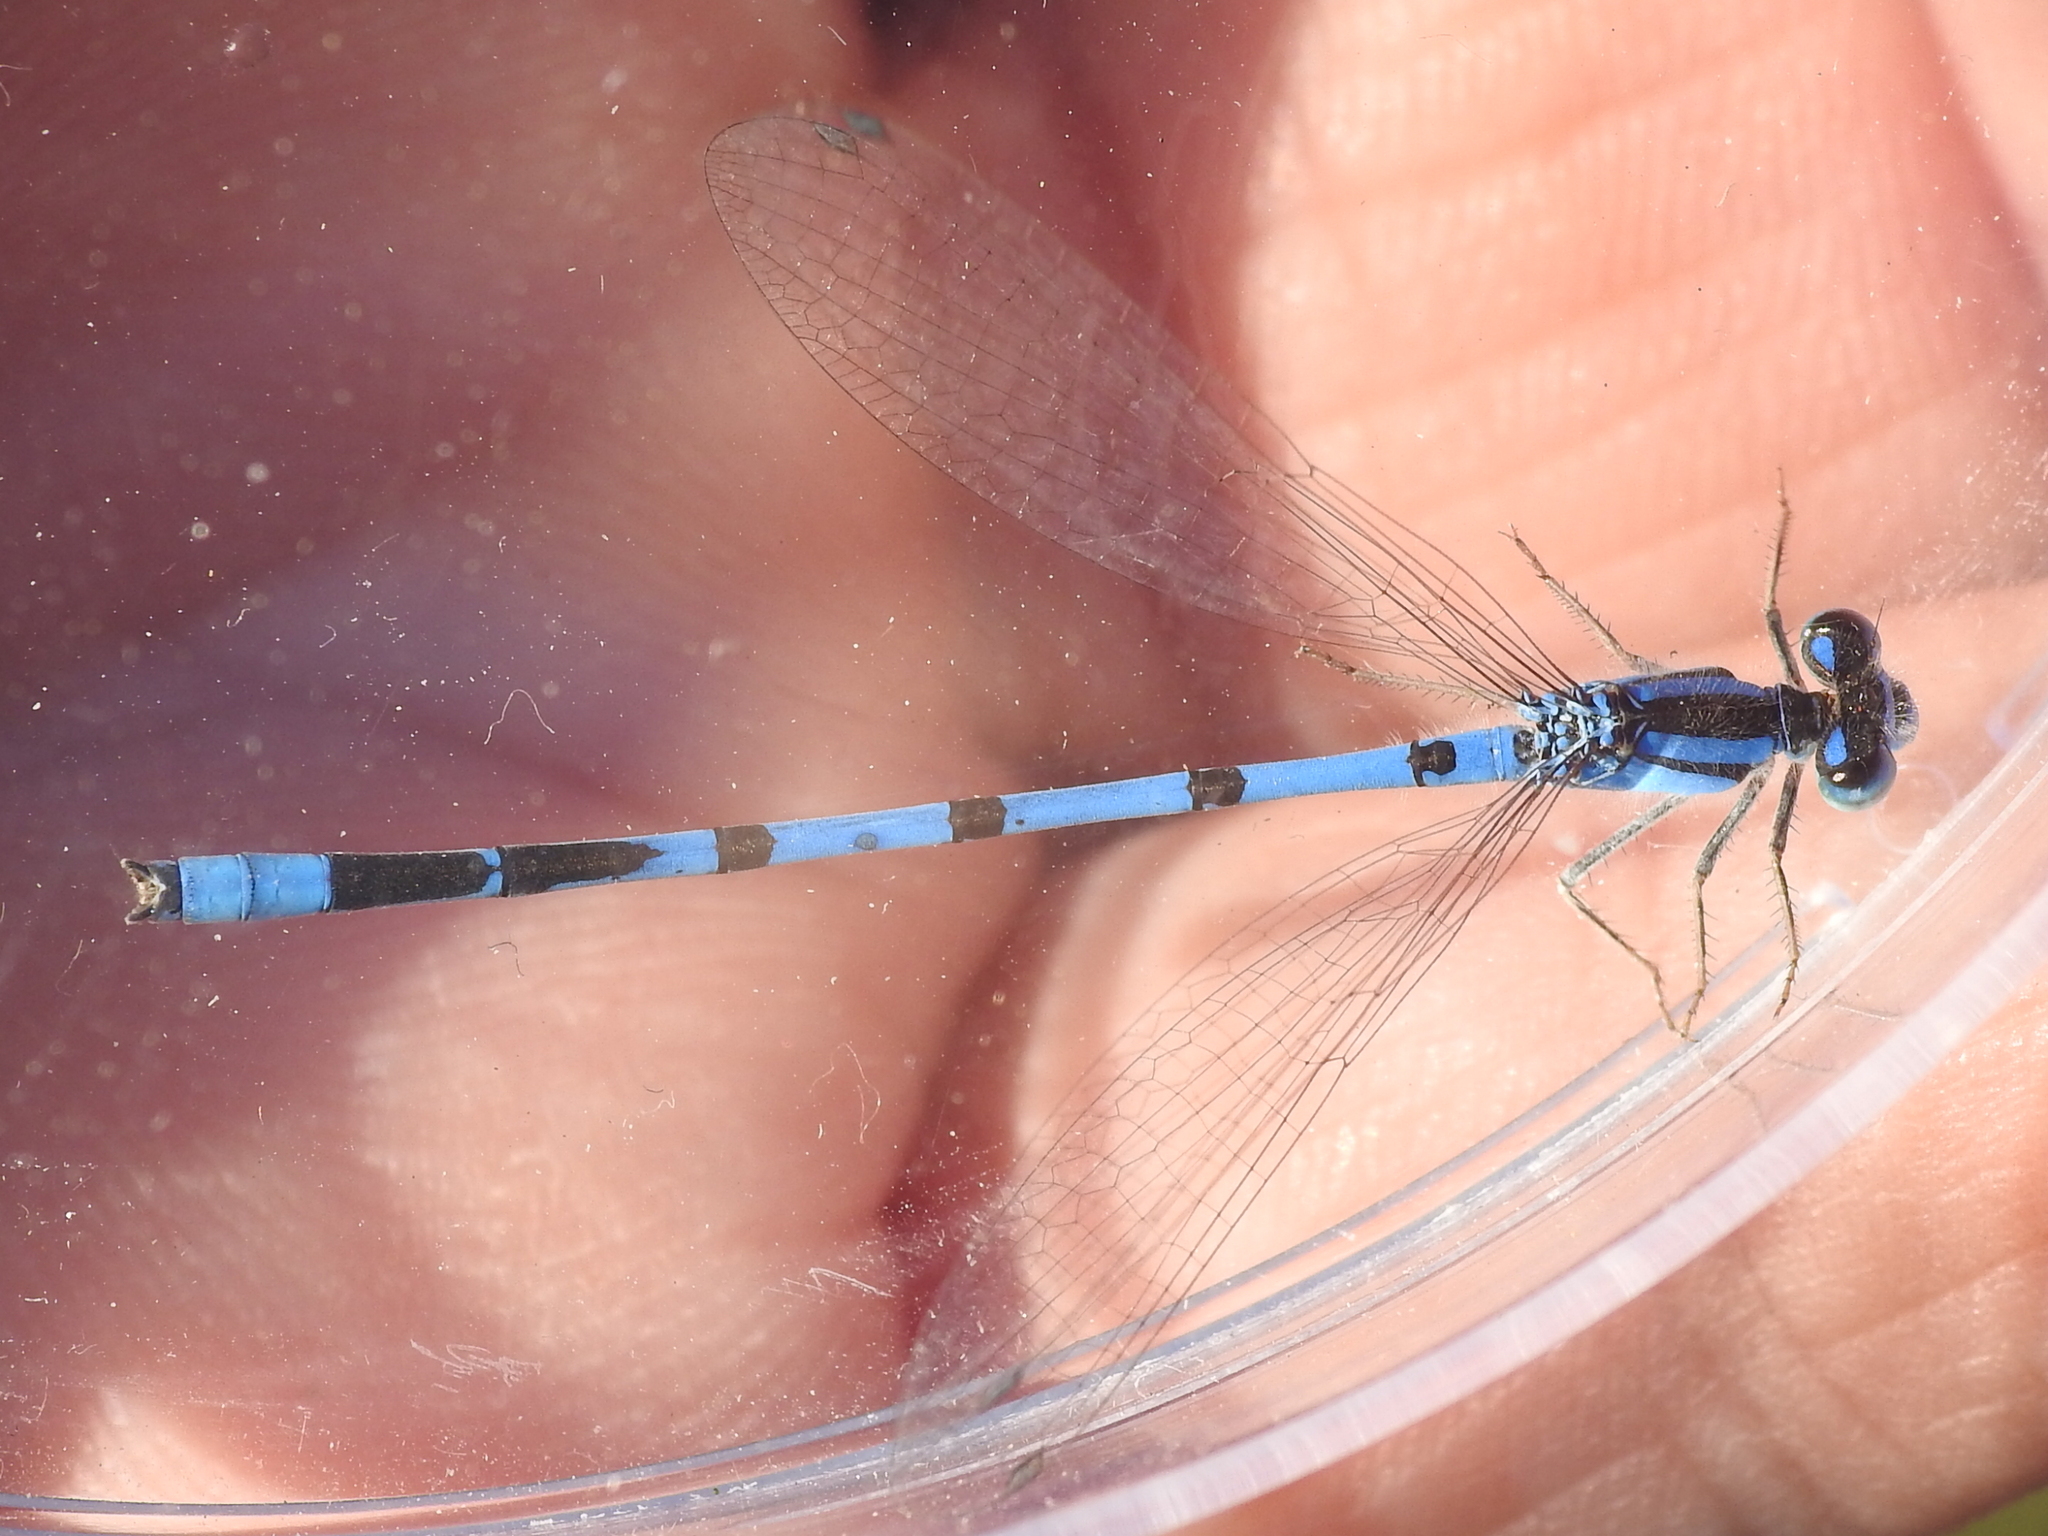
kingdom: Animalia
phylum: Arthropoda
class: Insecta
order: Odonata
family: Coenagrionidae
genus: Enallagma
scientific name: Enallagma civile
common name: Damselfly
